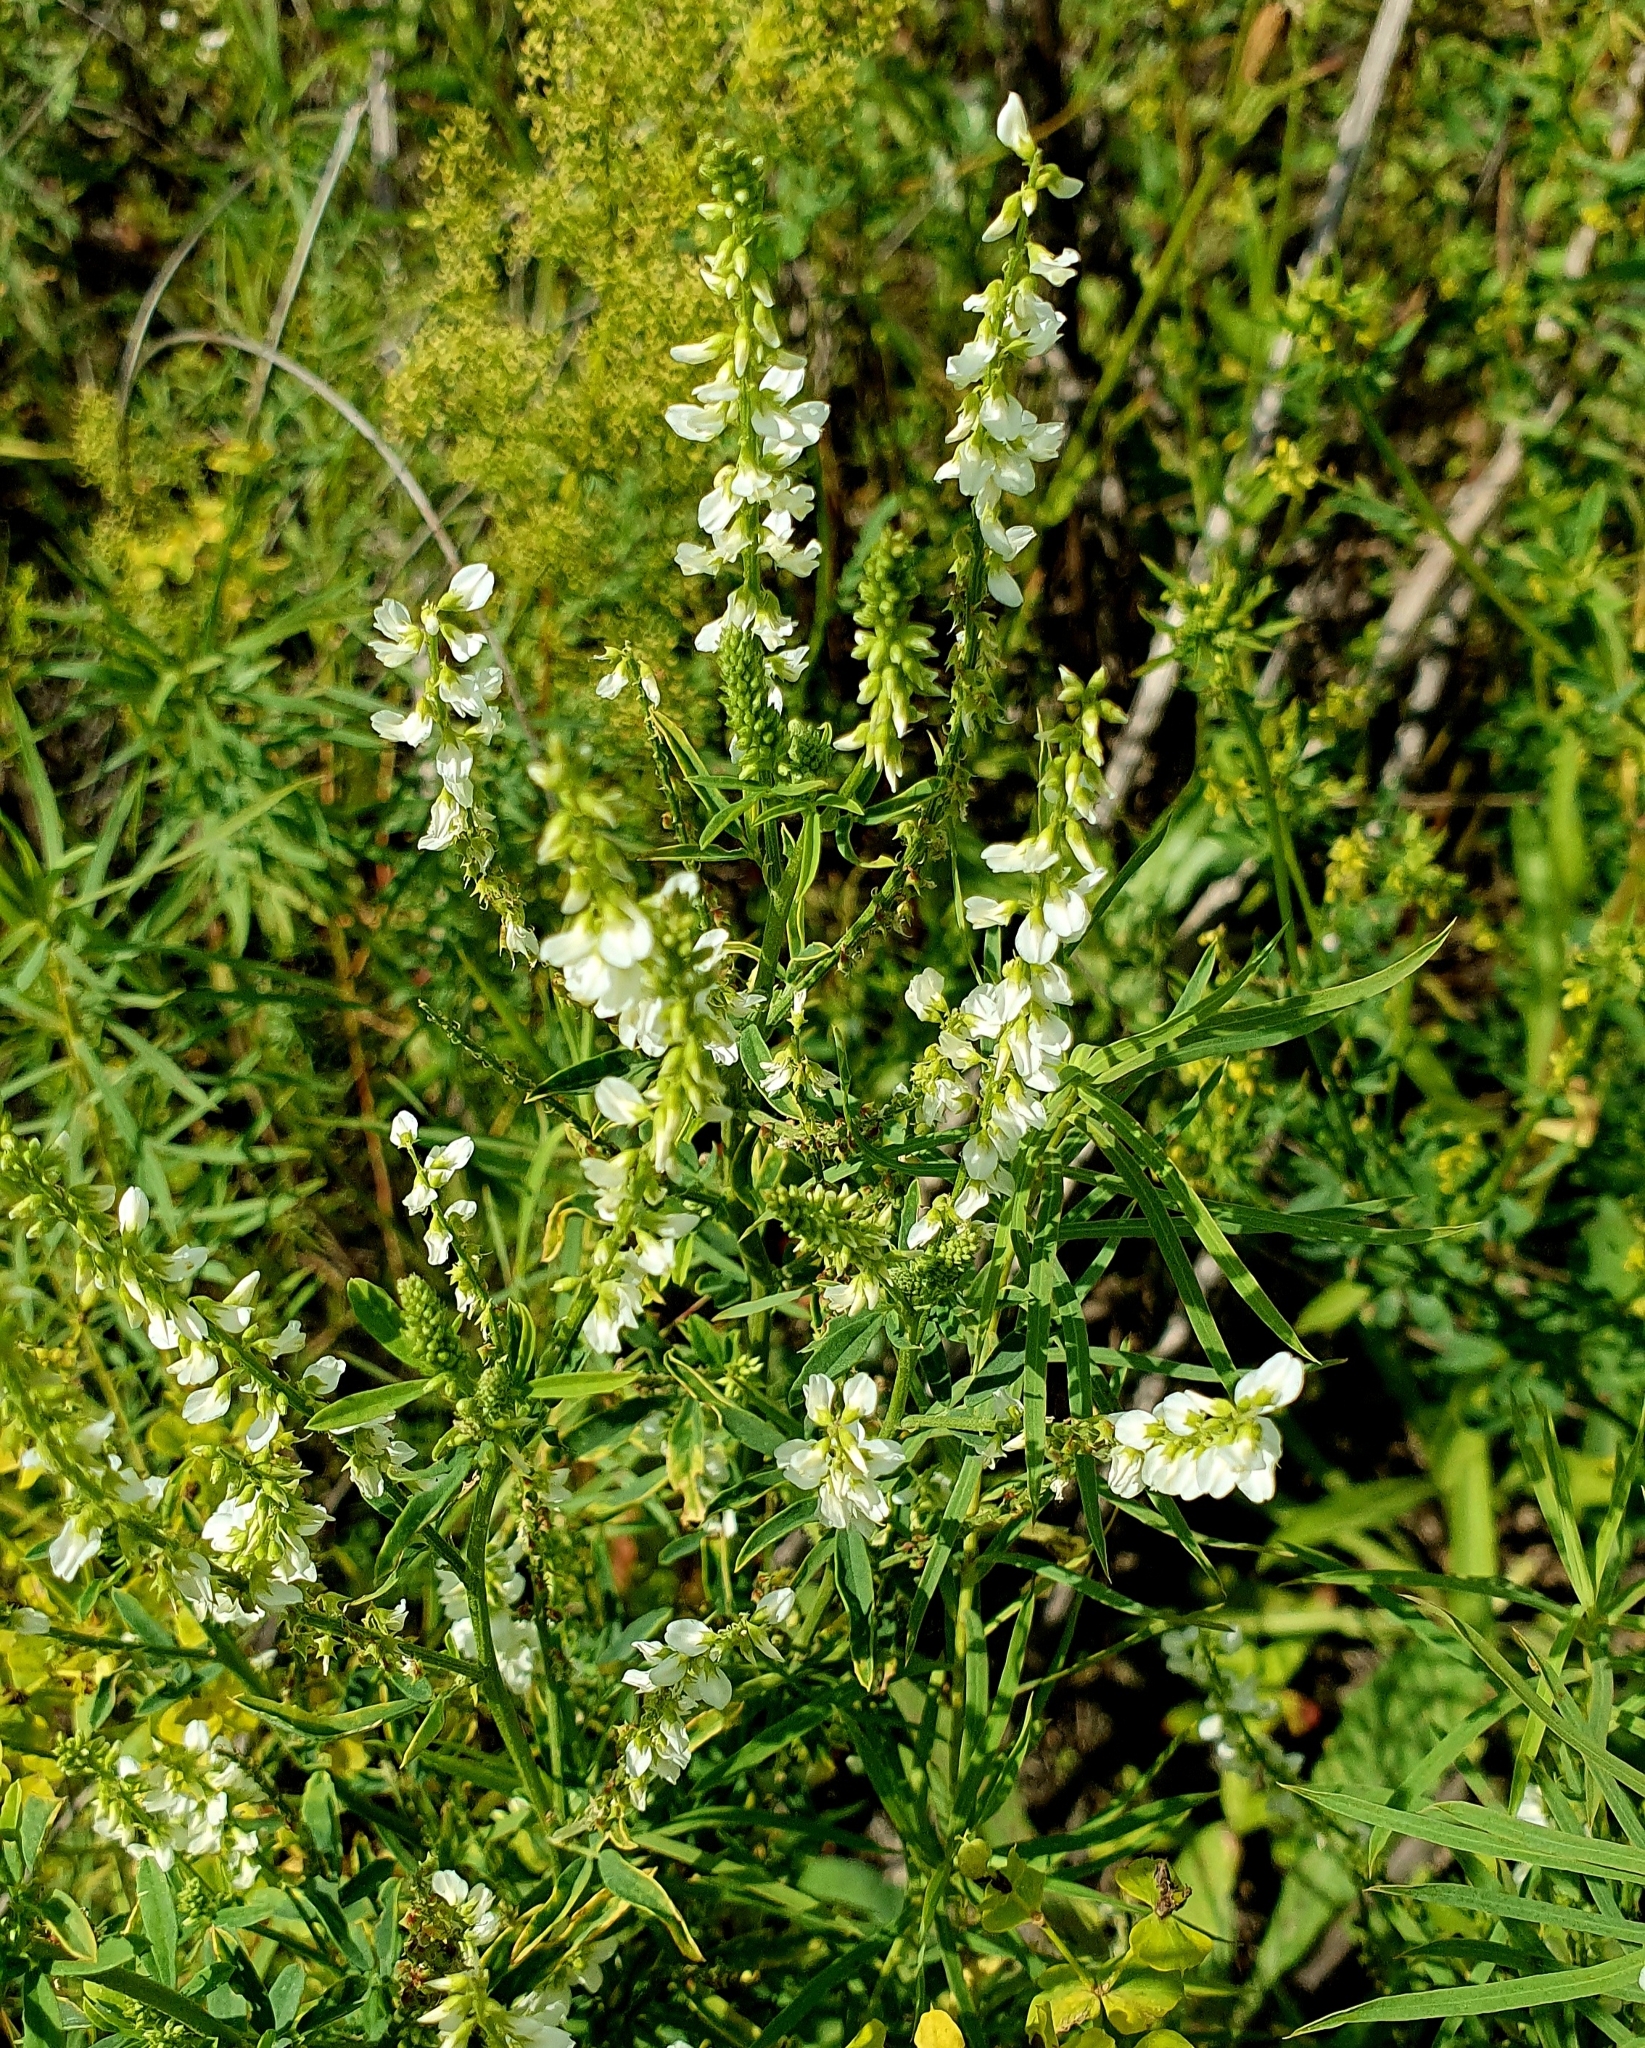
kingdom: Plantae
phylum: Tracheophyta
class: Magnoliopsida
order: Fabales
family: Fabaceae
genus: Melilotus
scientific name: Melilotus albus
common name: White melilot
